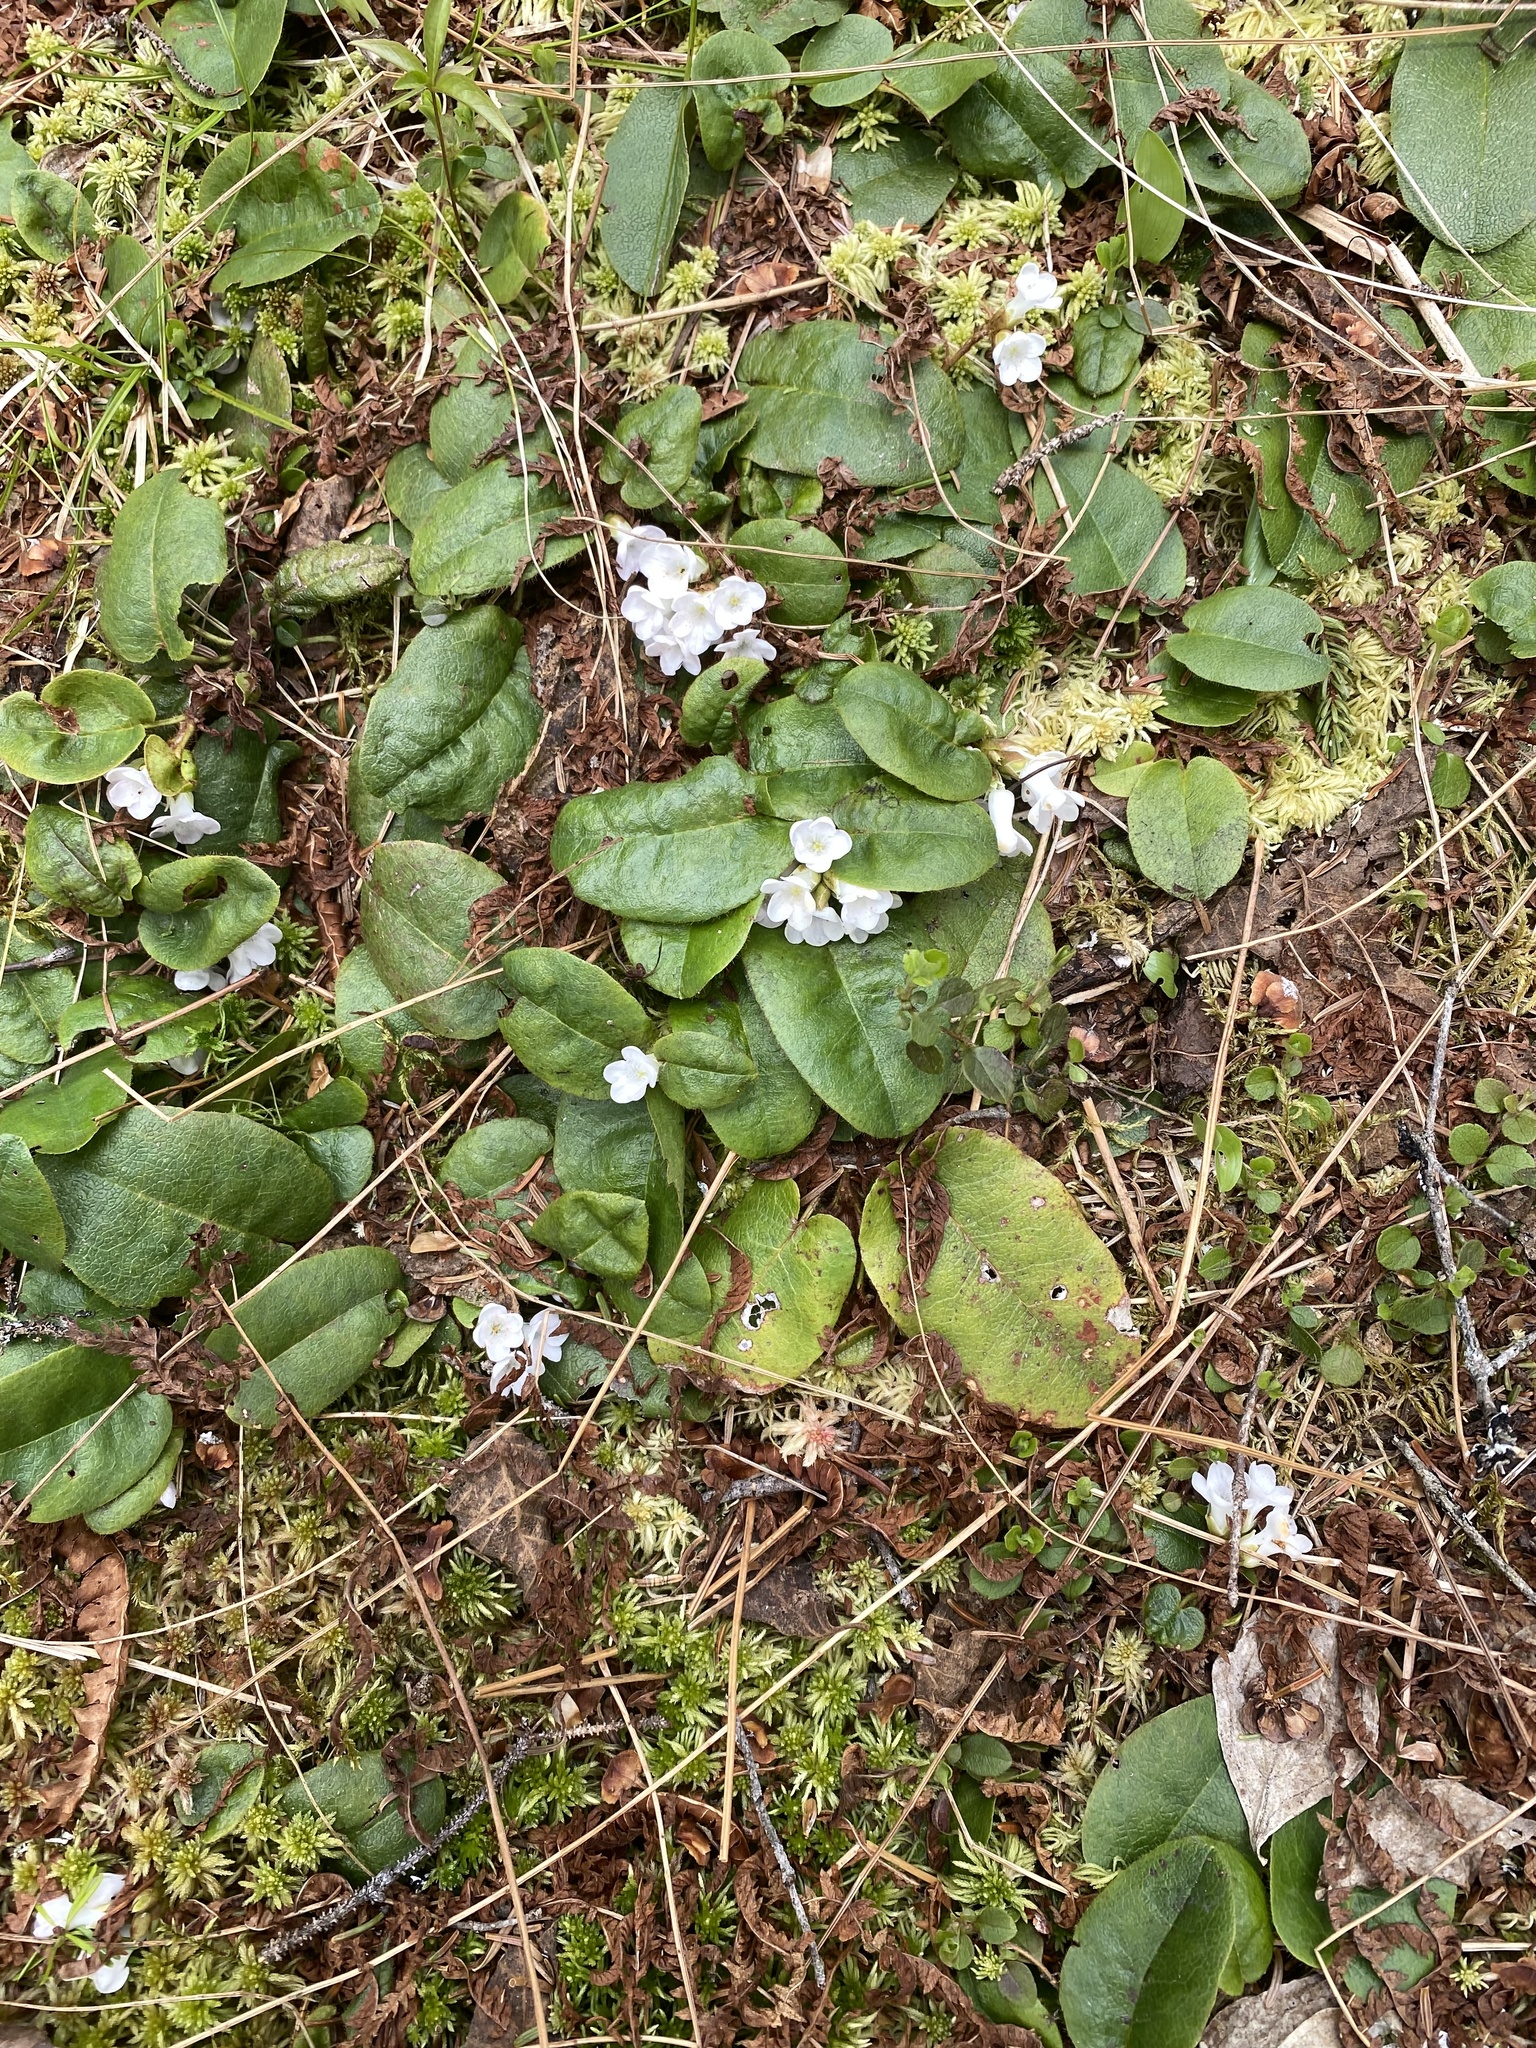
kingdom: Plantae
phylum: Tracheophyta
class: Magnoliopsida
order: Ericales
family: Ericaceae
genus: Epigaea
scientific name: Epigaea repens
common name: Gravelroot
